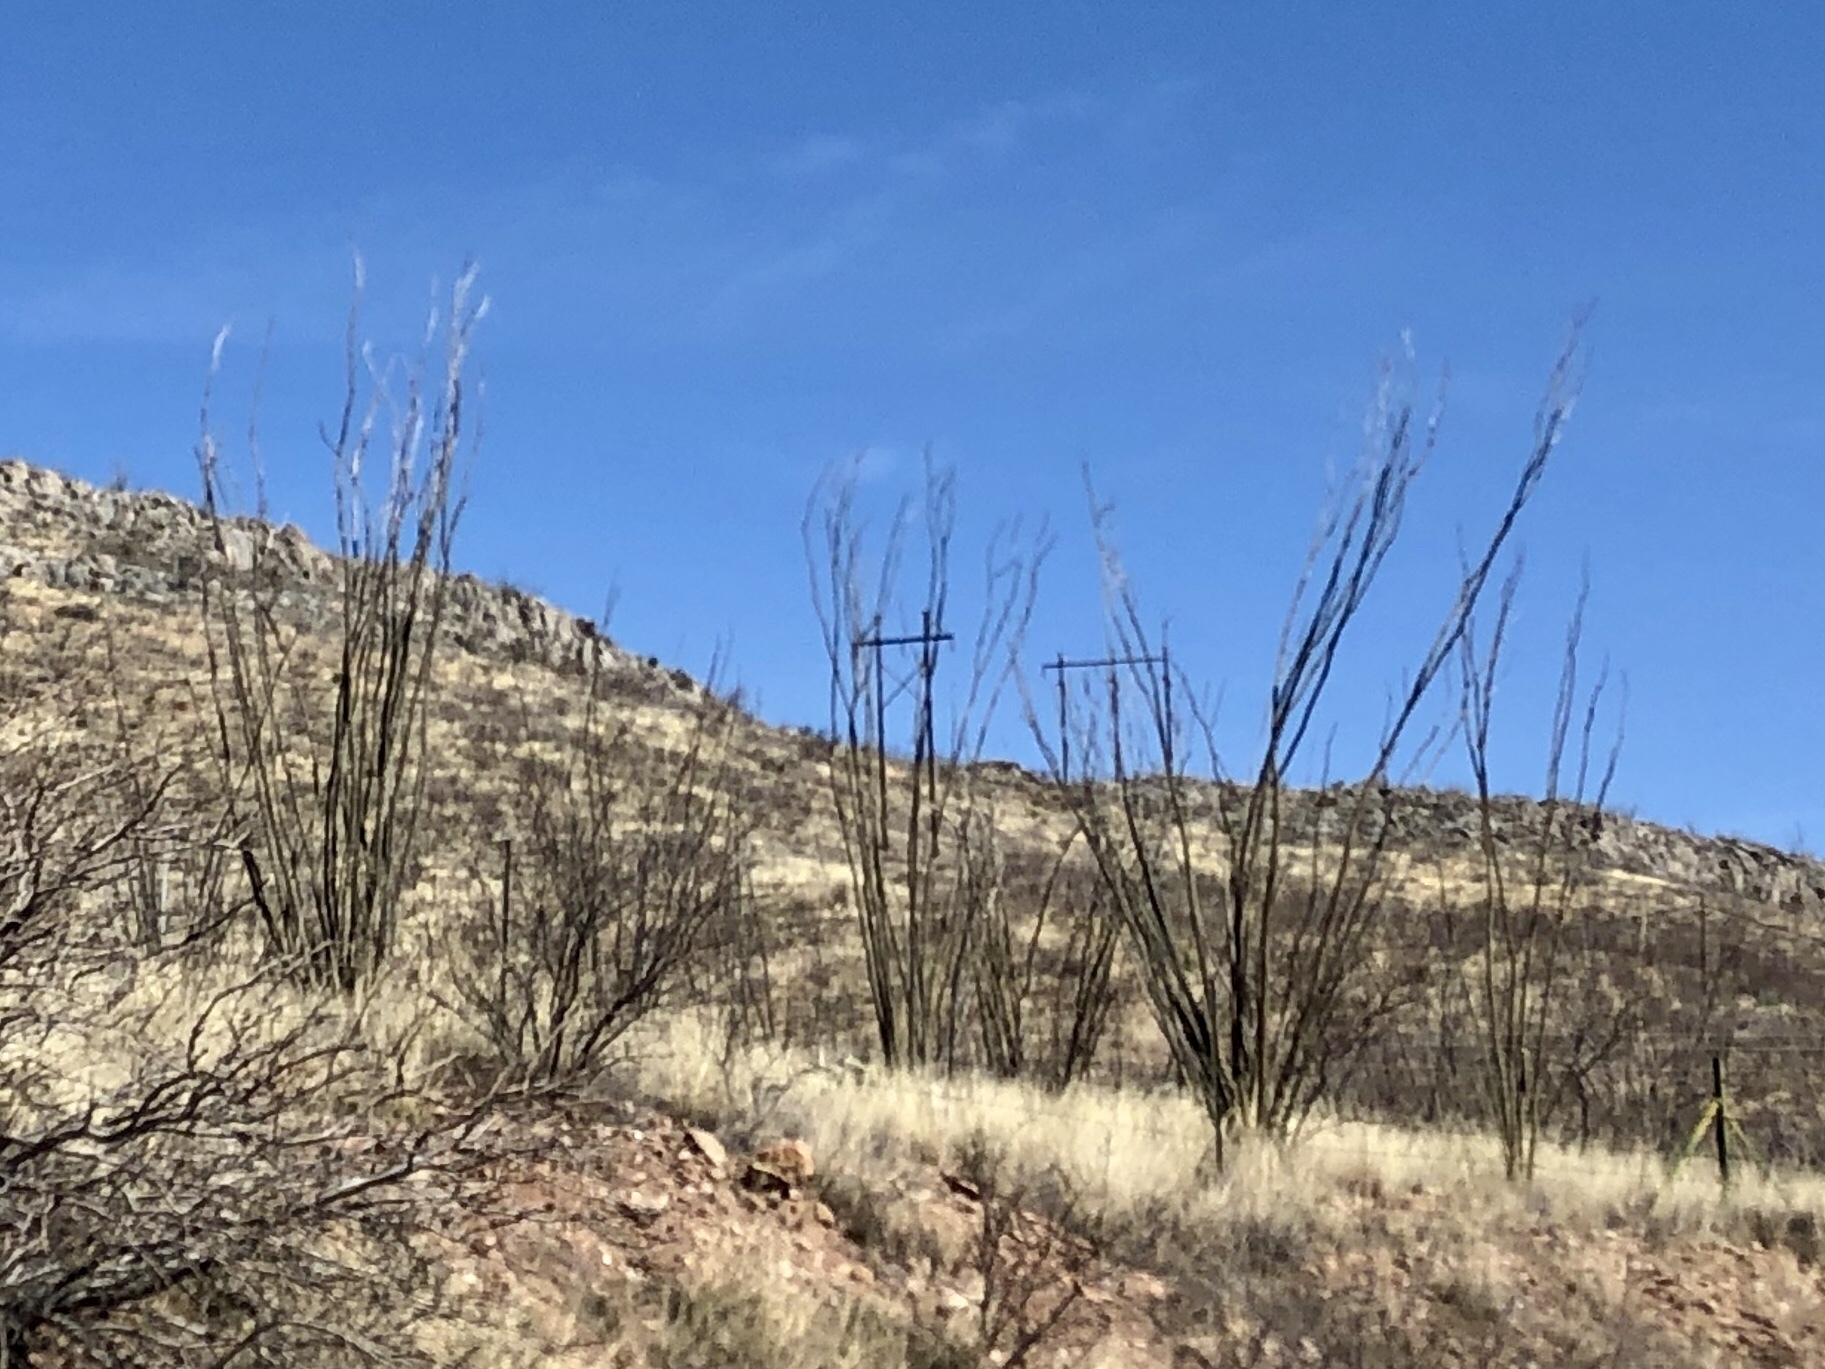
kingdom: Plantae
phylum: Tracheophyta
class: Magnoliopsida
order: Ericales
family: Fouquieriaceae
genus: Fouquieria
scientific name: Fouquieria splendens
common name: Vine-cactus
